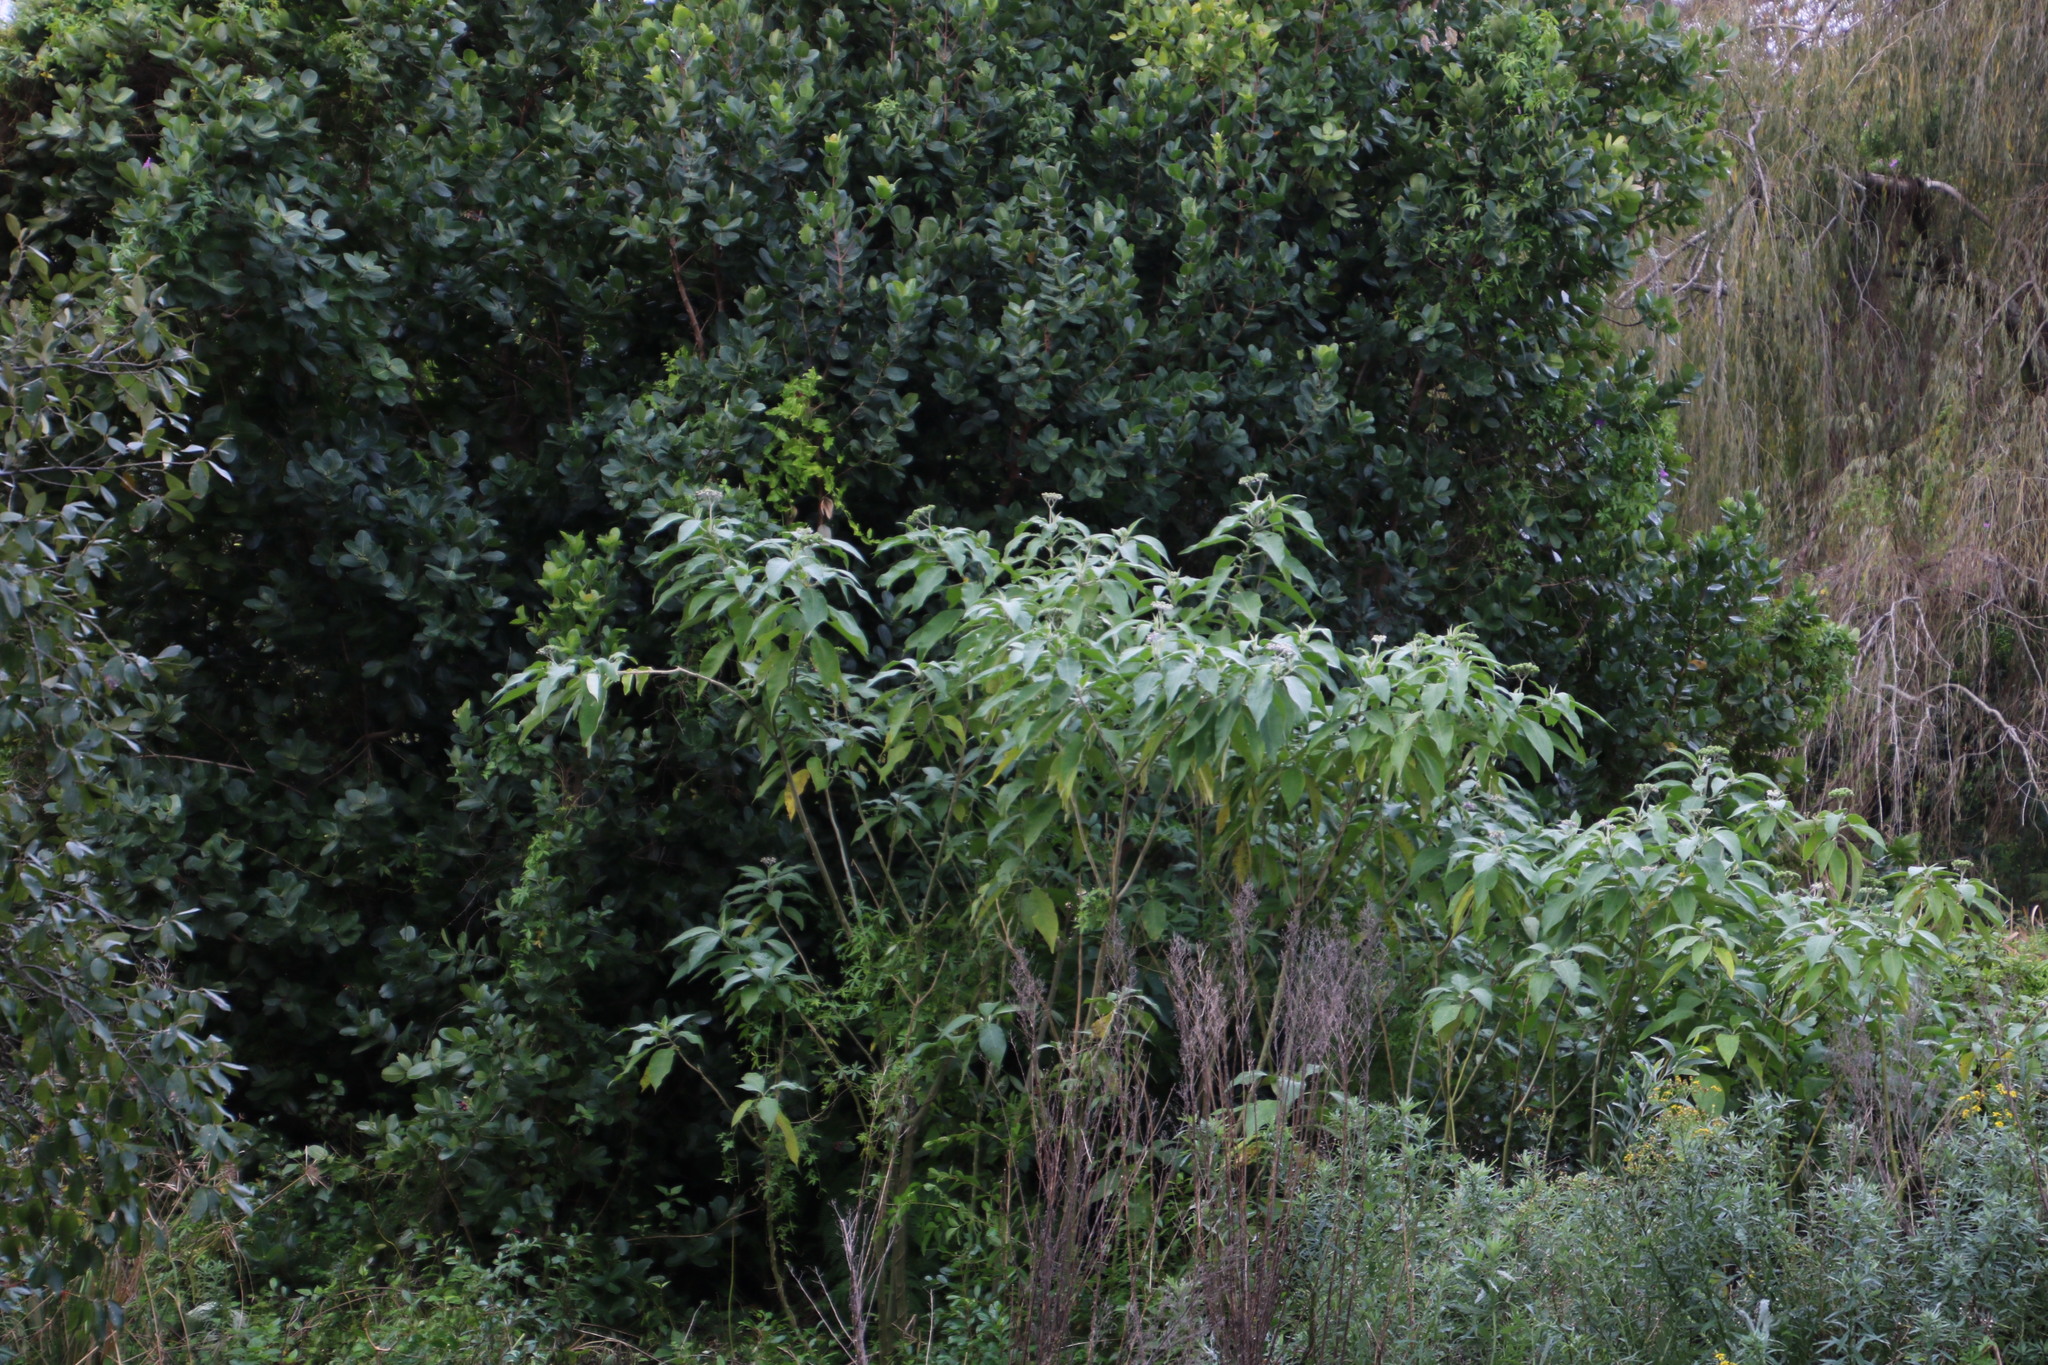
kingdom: Plantae
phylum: Tracheophyta
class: Magnoliopsida
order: Solanales
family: Solanaceae
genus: Solanum
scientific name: Solanum mauritianum
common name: Earleaf nightshade
